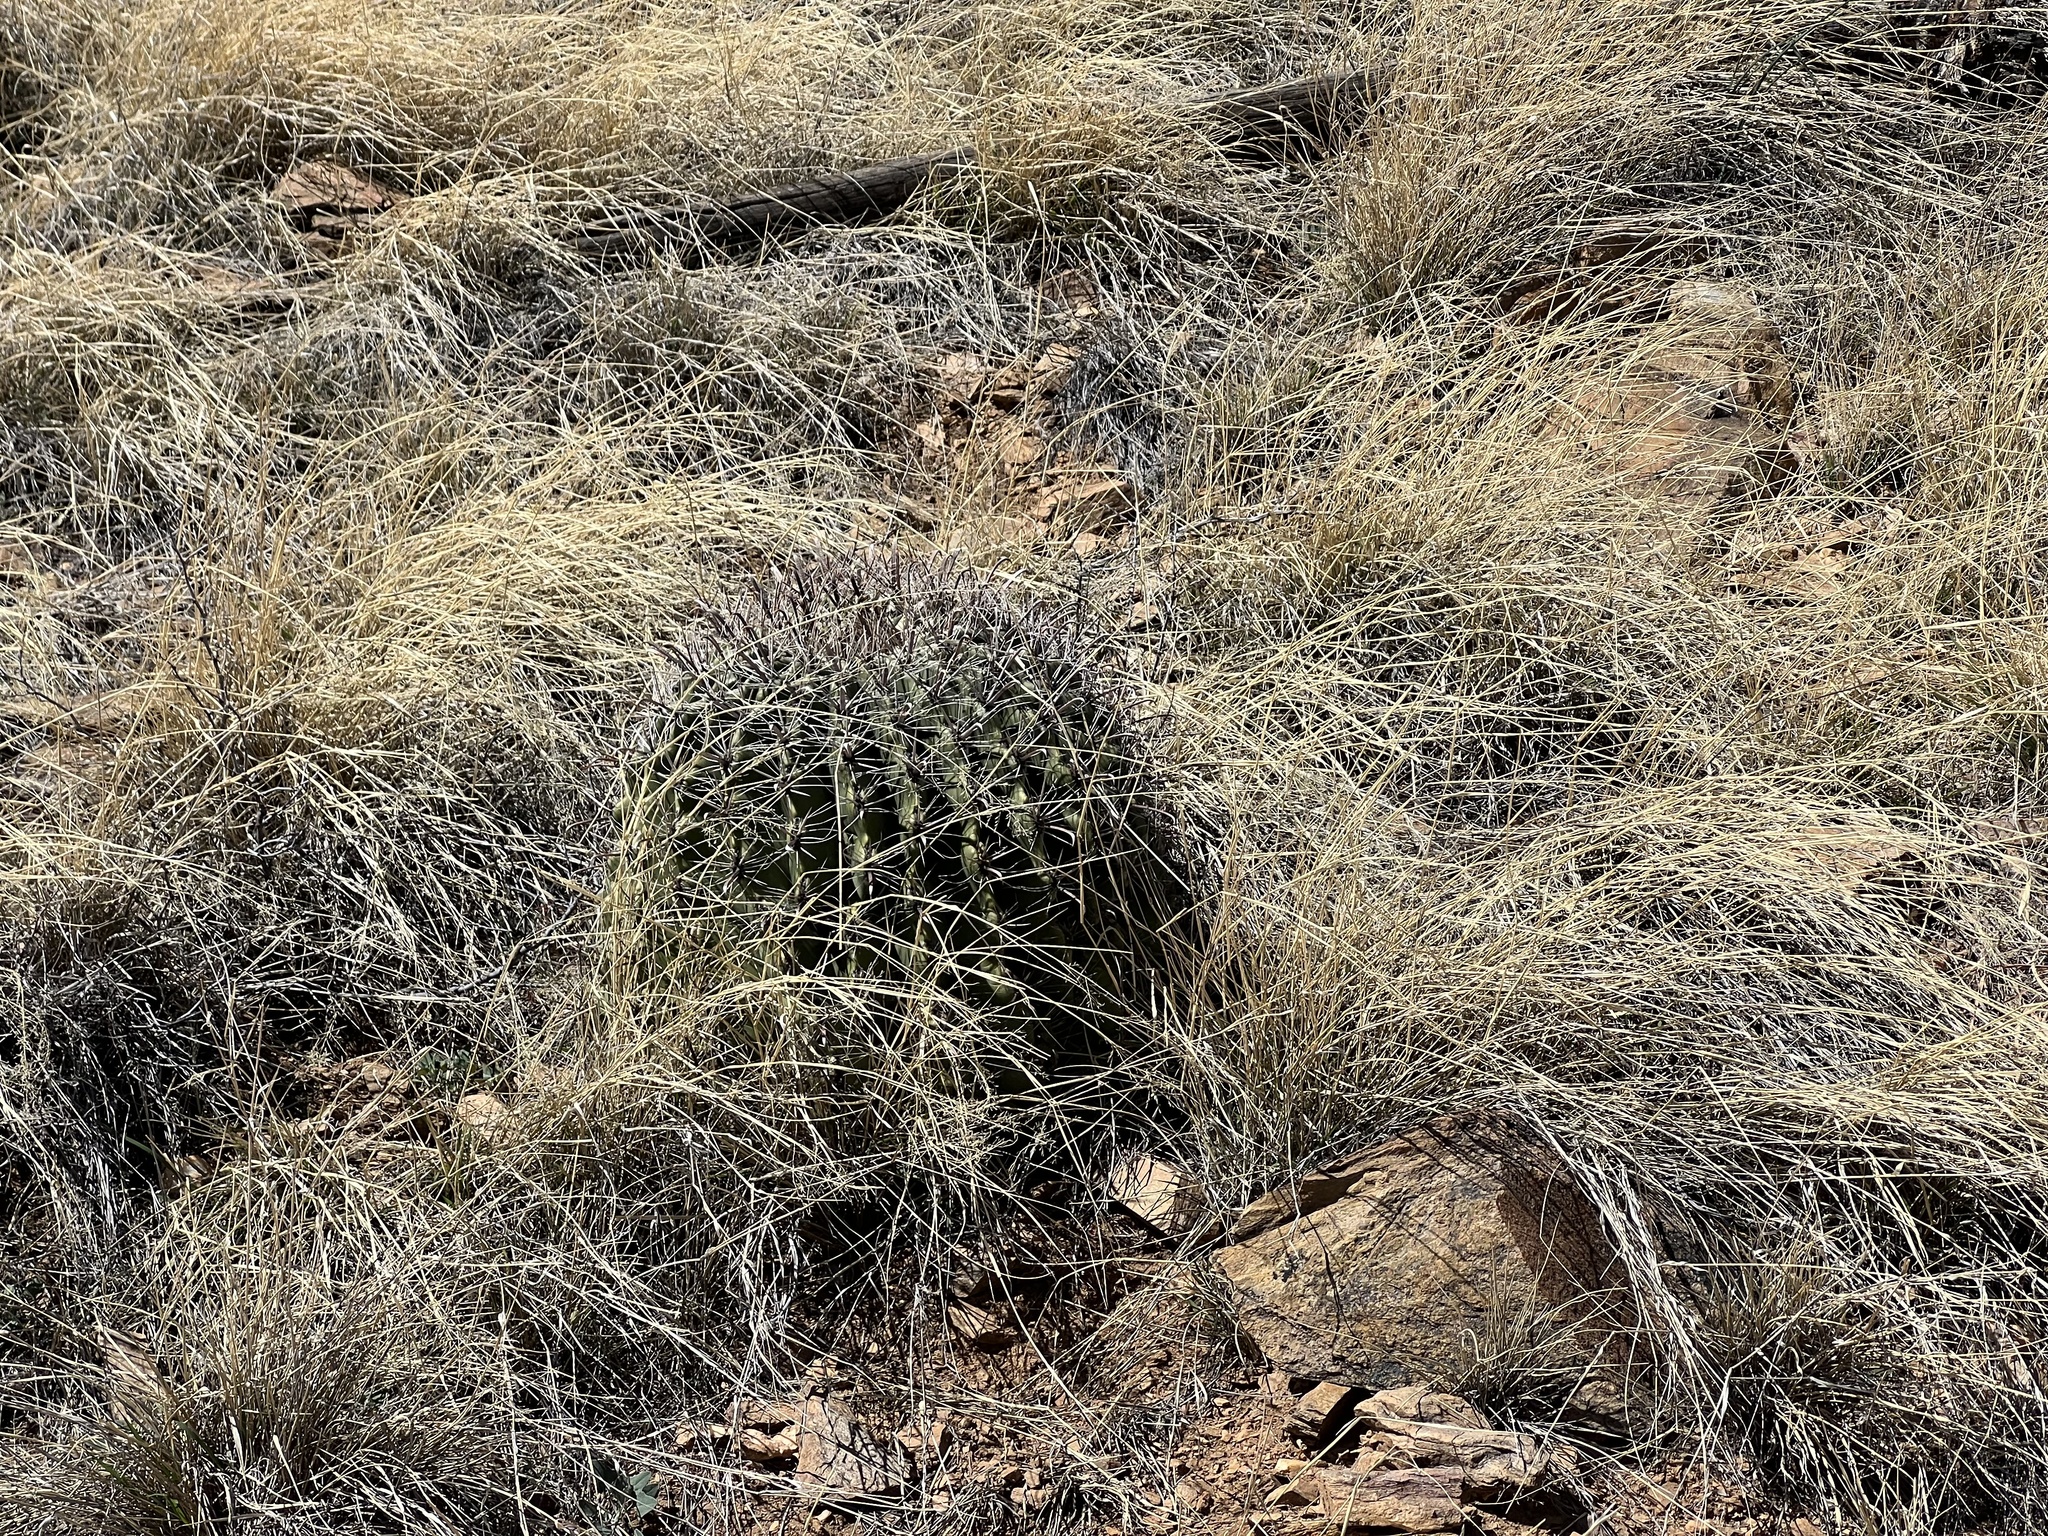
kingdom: Plantae
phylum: Tracheophyta
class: Magnoliopsida
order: Caryophyllales
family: Cactaceae
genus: Ferocactus
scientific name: Ferocactus wislizeni
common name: Candy barrel cactus
